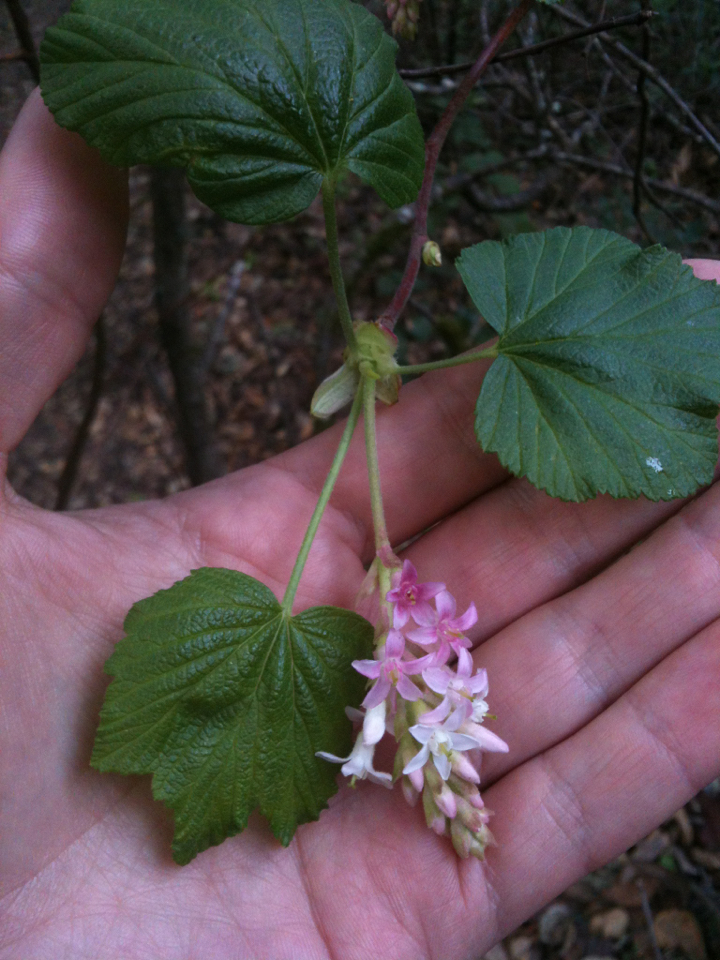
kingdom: Plantae
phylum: Tracheophyta
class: Magnoliopsida
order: Saxifragales
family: Grossulariaceae
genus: Ribes
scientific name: Ribes sanguineum
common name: Flowering currant
